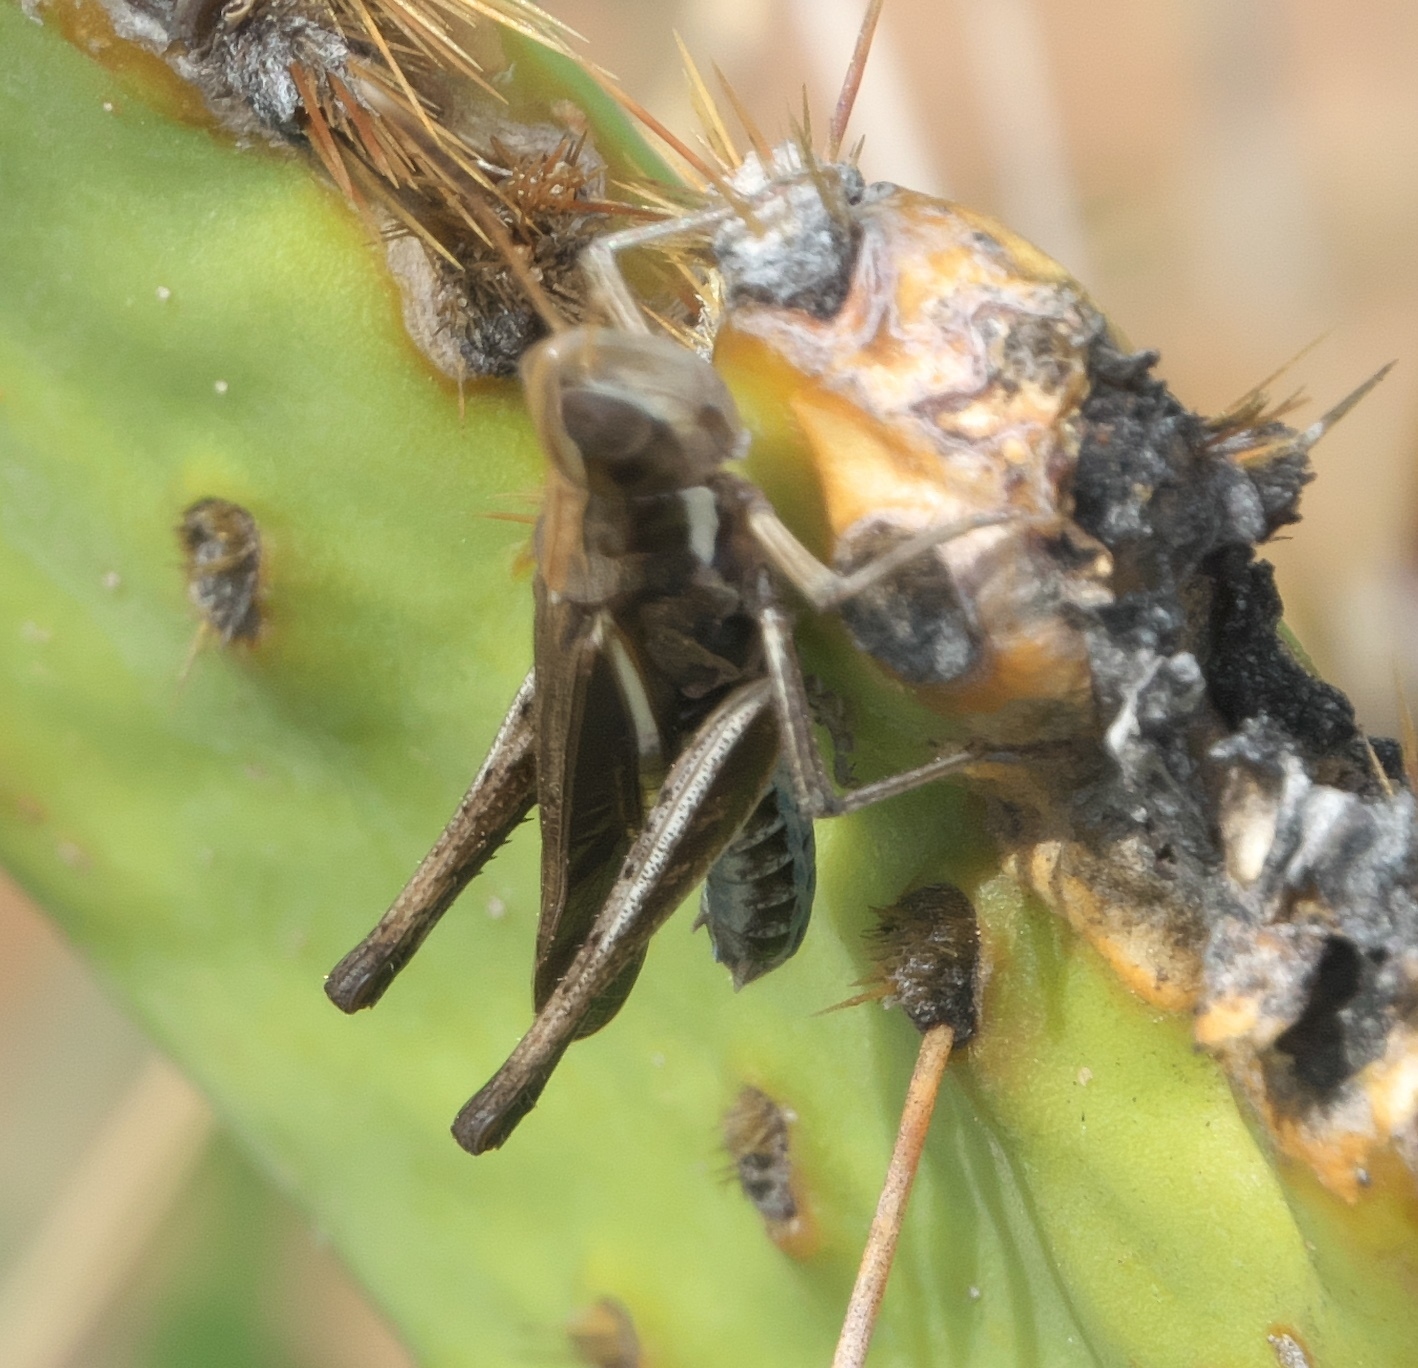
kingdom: Animalia
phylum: Arthropoda
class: Insecta
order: Orthoptera
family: Acrididae
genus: Syrbula
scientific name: Syrbula montezuma
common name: Montezuma's grasshopper
